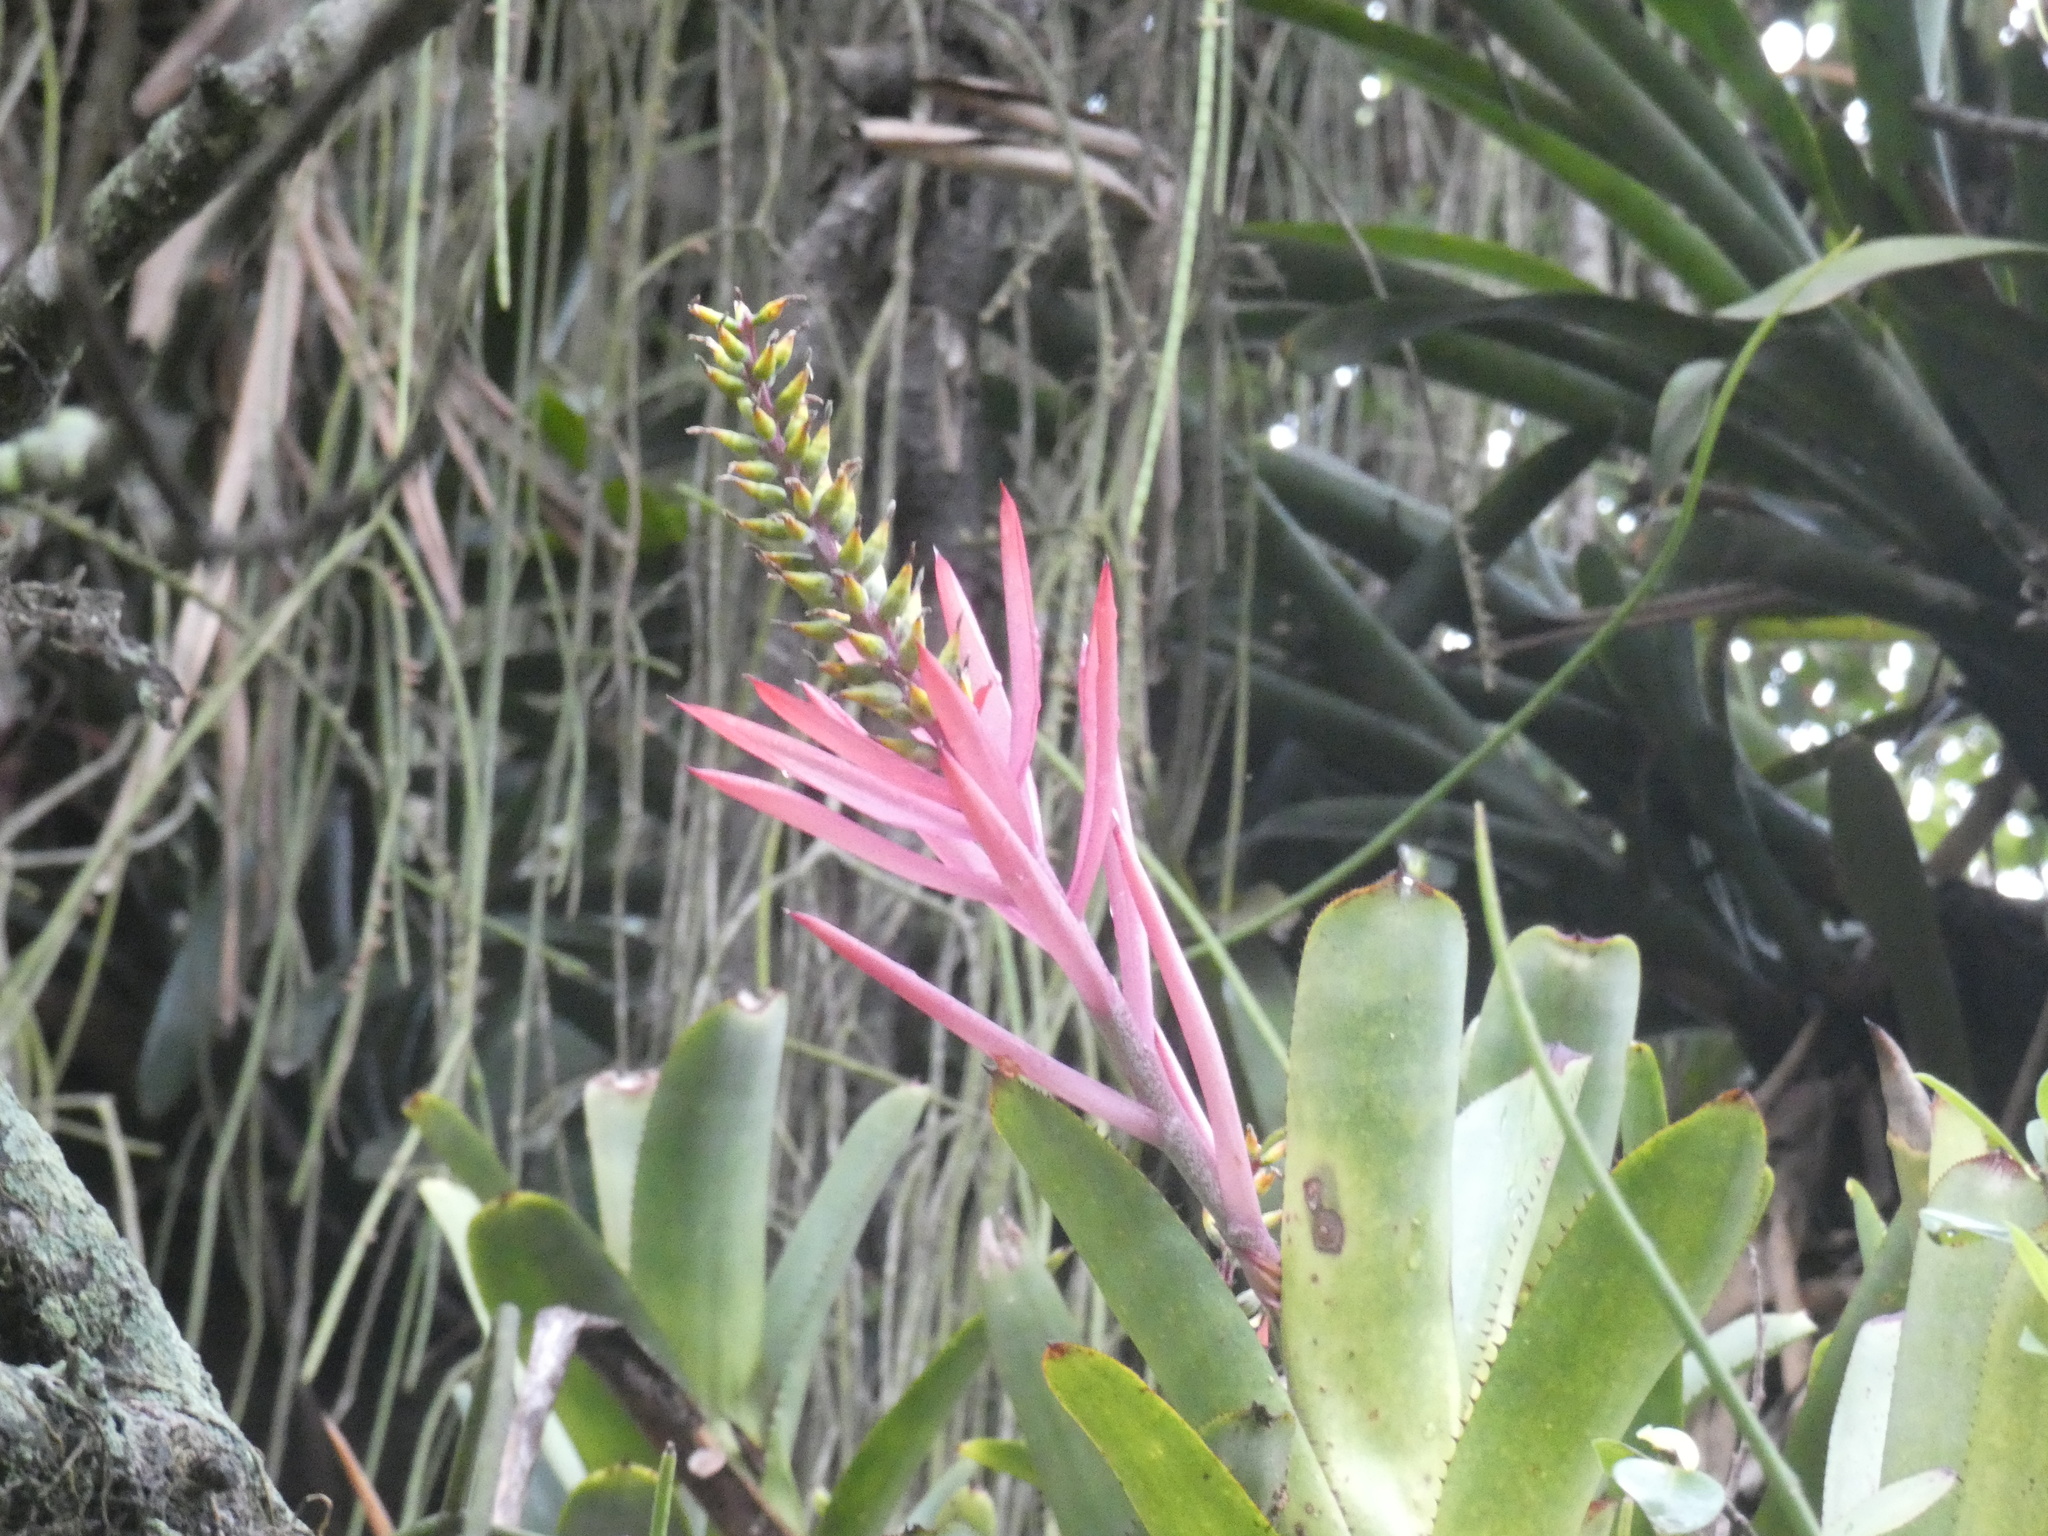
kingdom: Plantae
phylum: Tracheophyta
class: Liliopsida
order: Poales
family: Bromeliaceae
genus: Aechmea
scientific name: Aechmea nudicaulis
